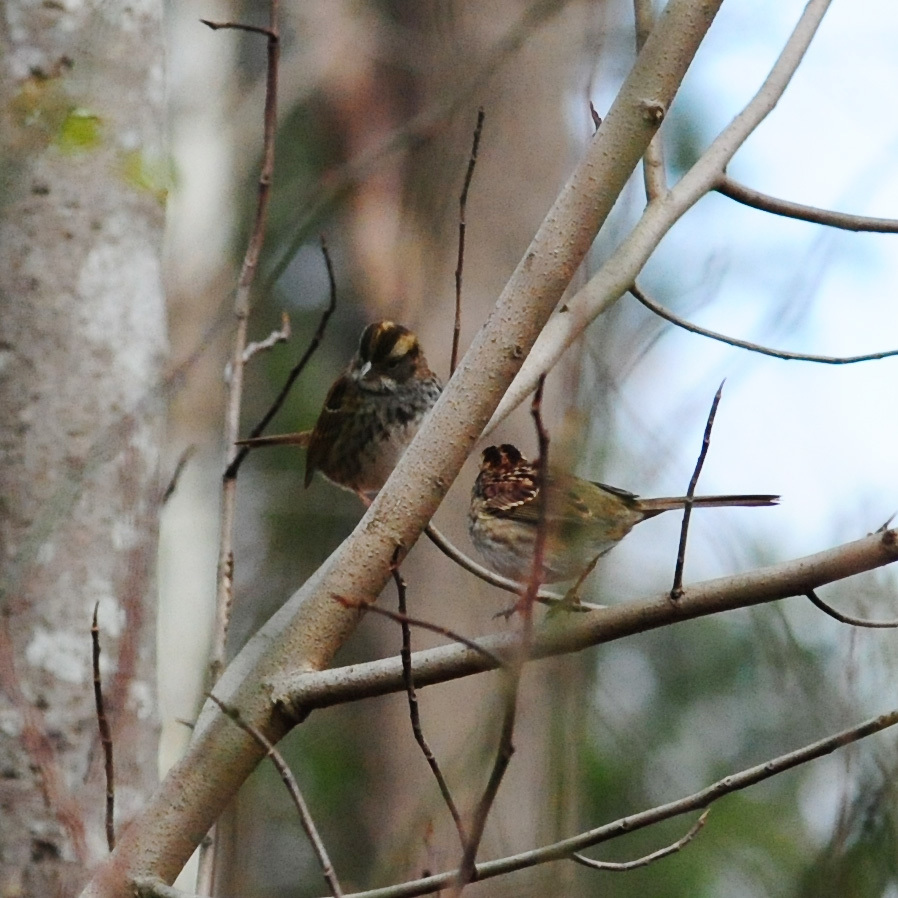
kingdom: Animalia
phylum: Chordata
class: Aves
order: Passeriformes
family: Passerellidae
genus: Zonotrichia
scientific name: Zonotrichia albicollis
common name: White-throated sparrow
